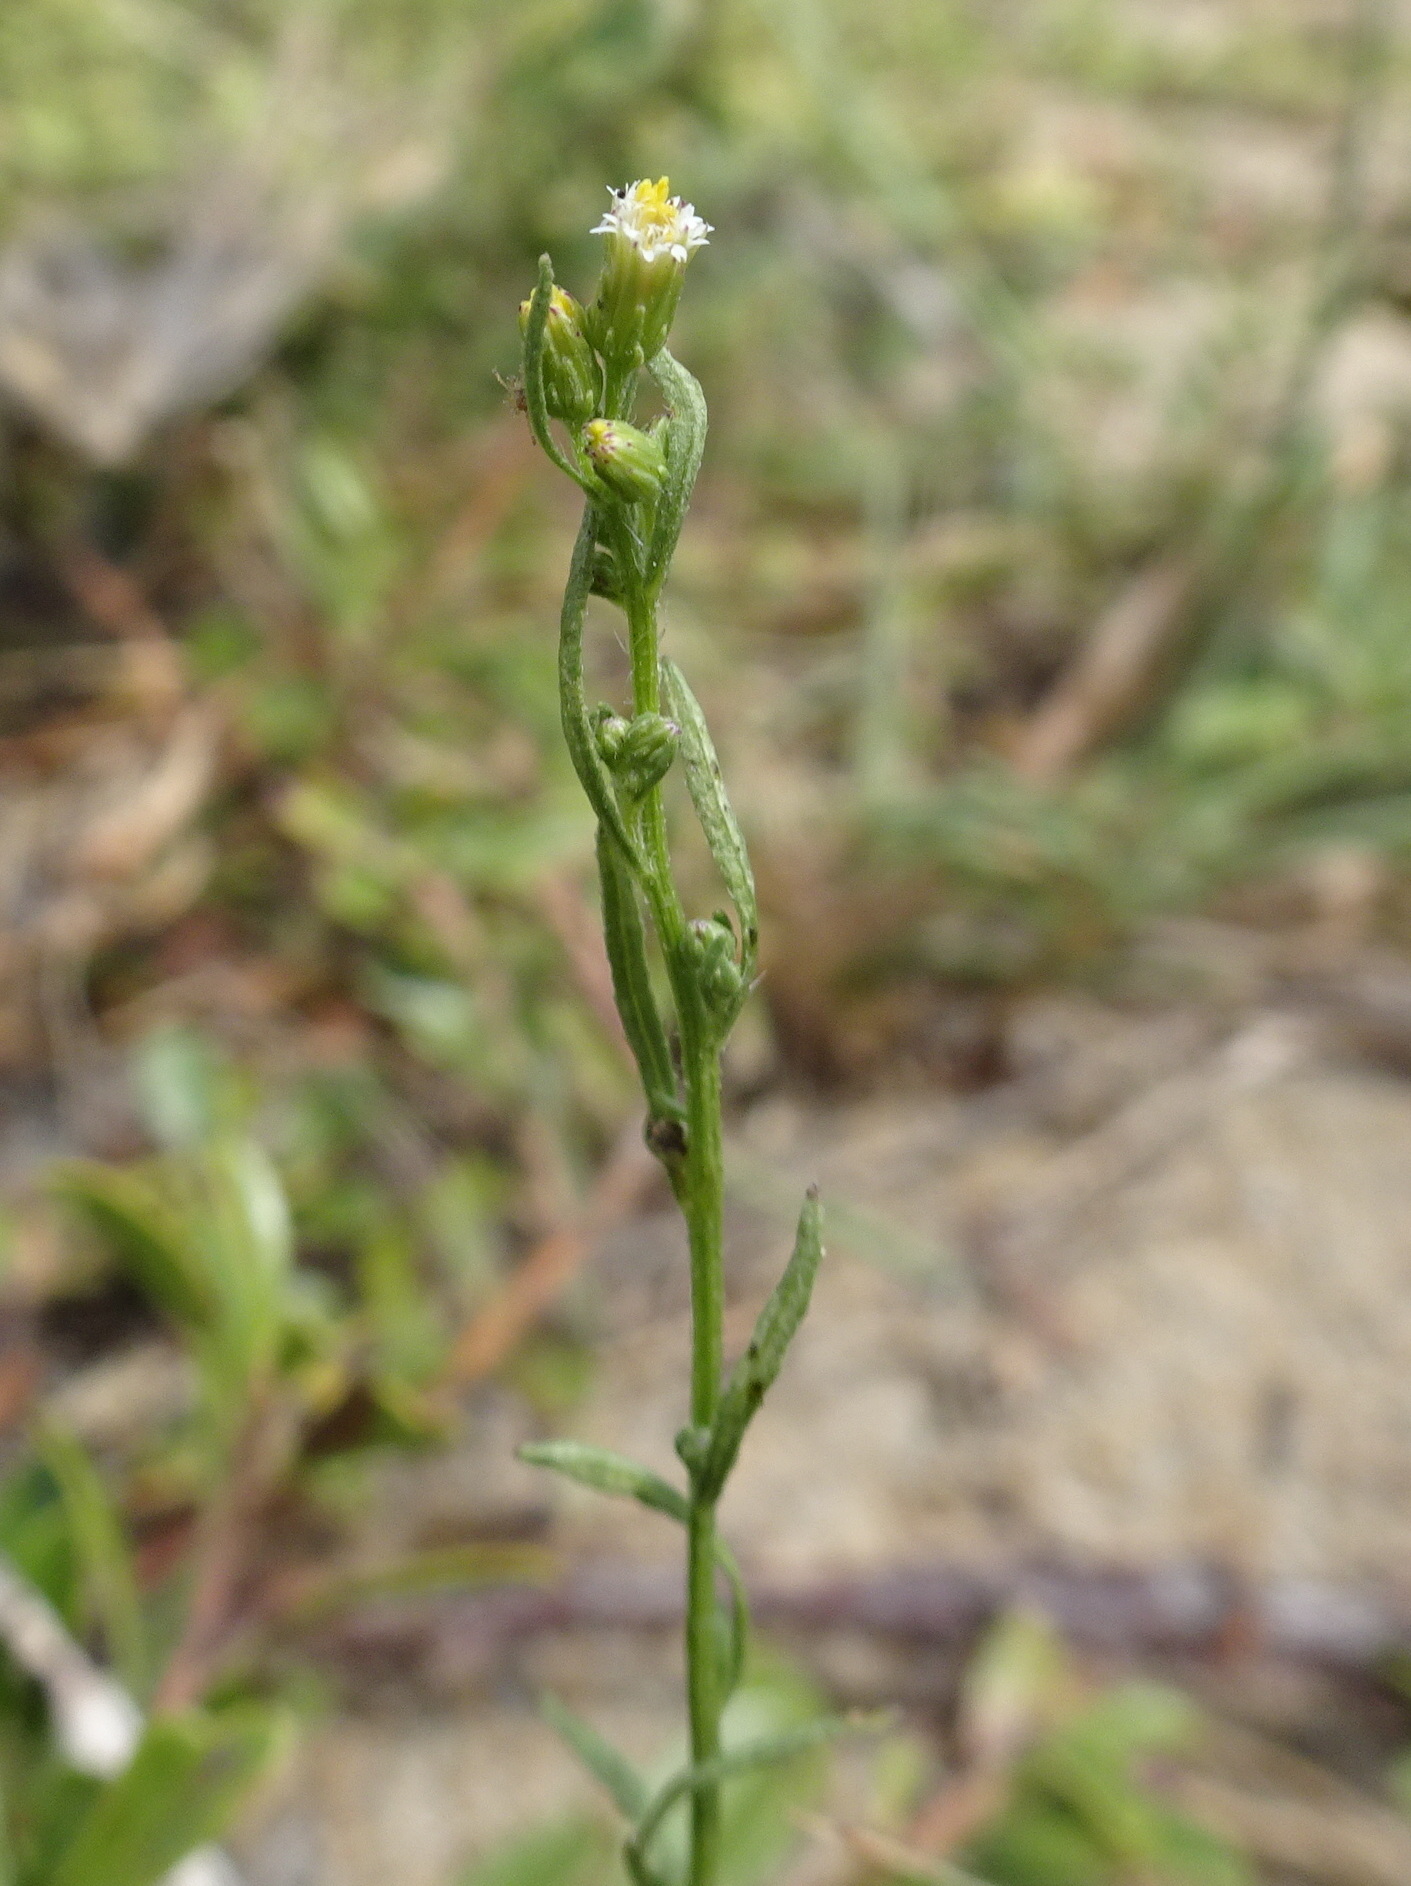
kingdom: Plantae
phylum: Tracheophyta
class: Magnoliopsida
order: Asterales
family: Asteraceae
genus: Erigeron
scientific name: Erigeron canadensis
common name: Canadian fleabane
